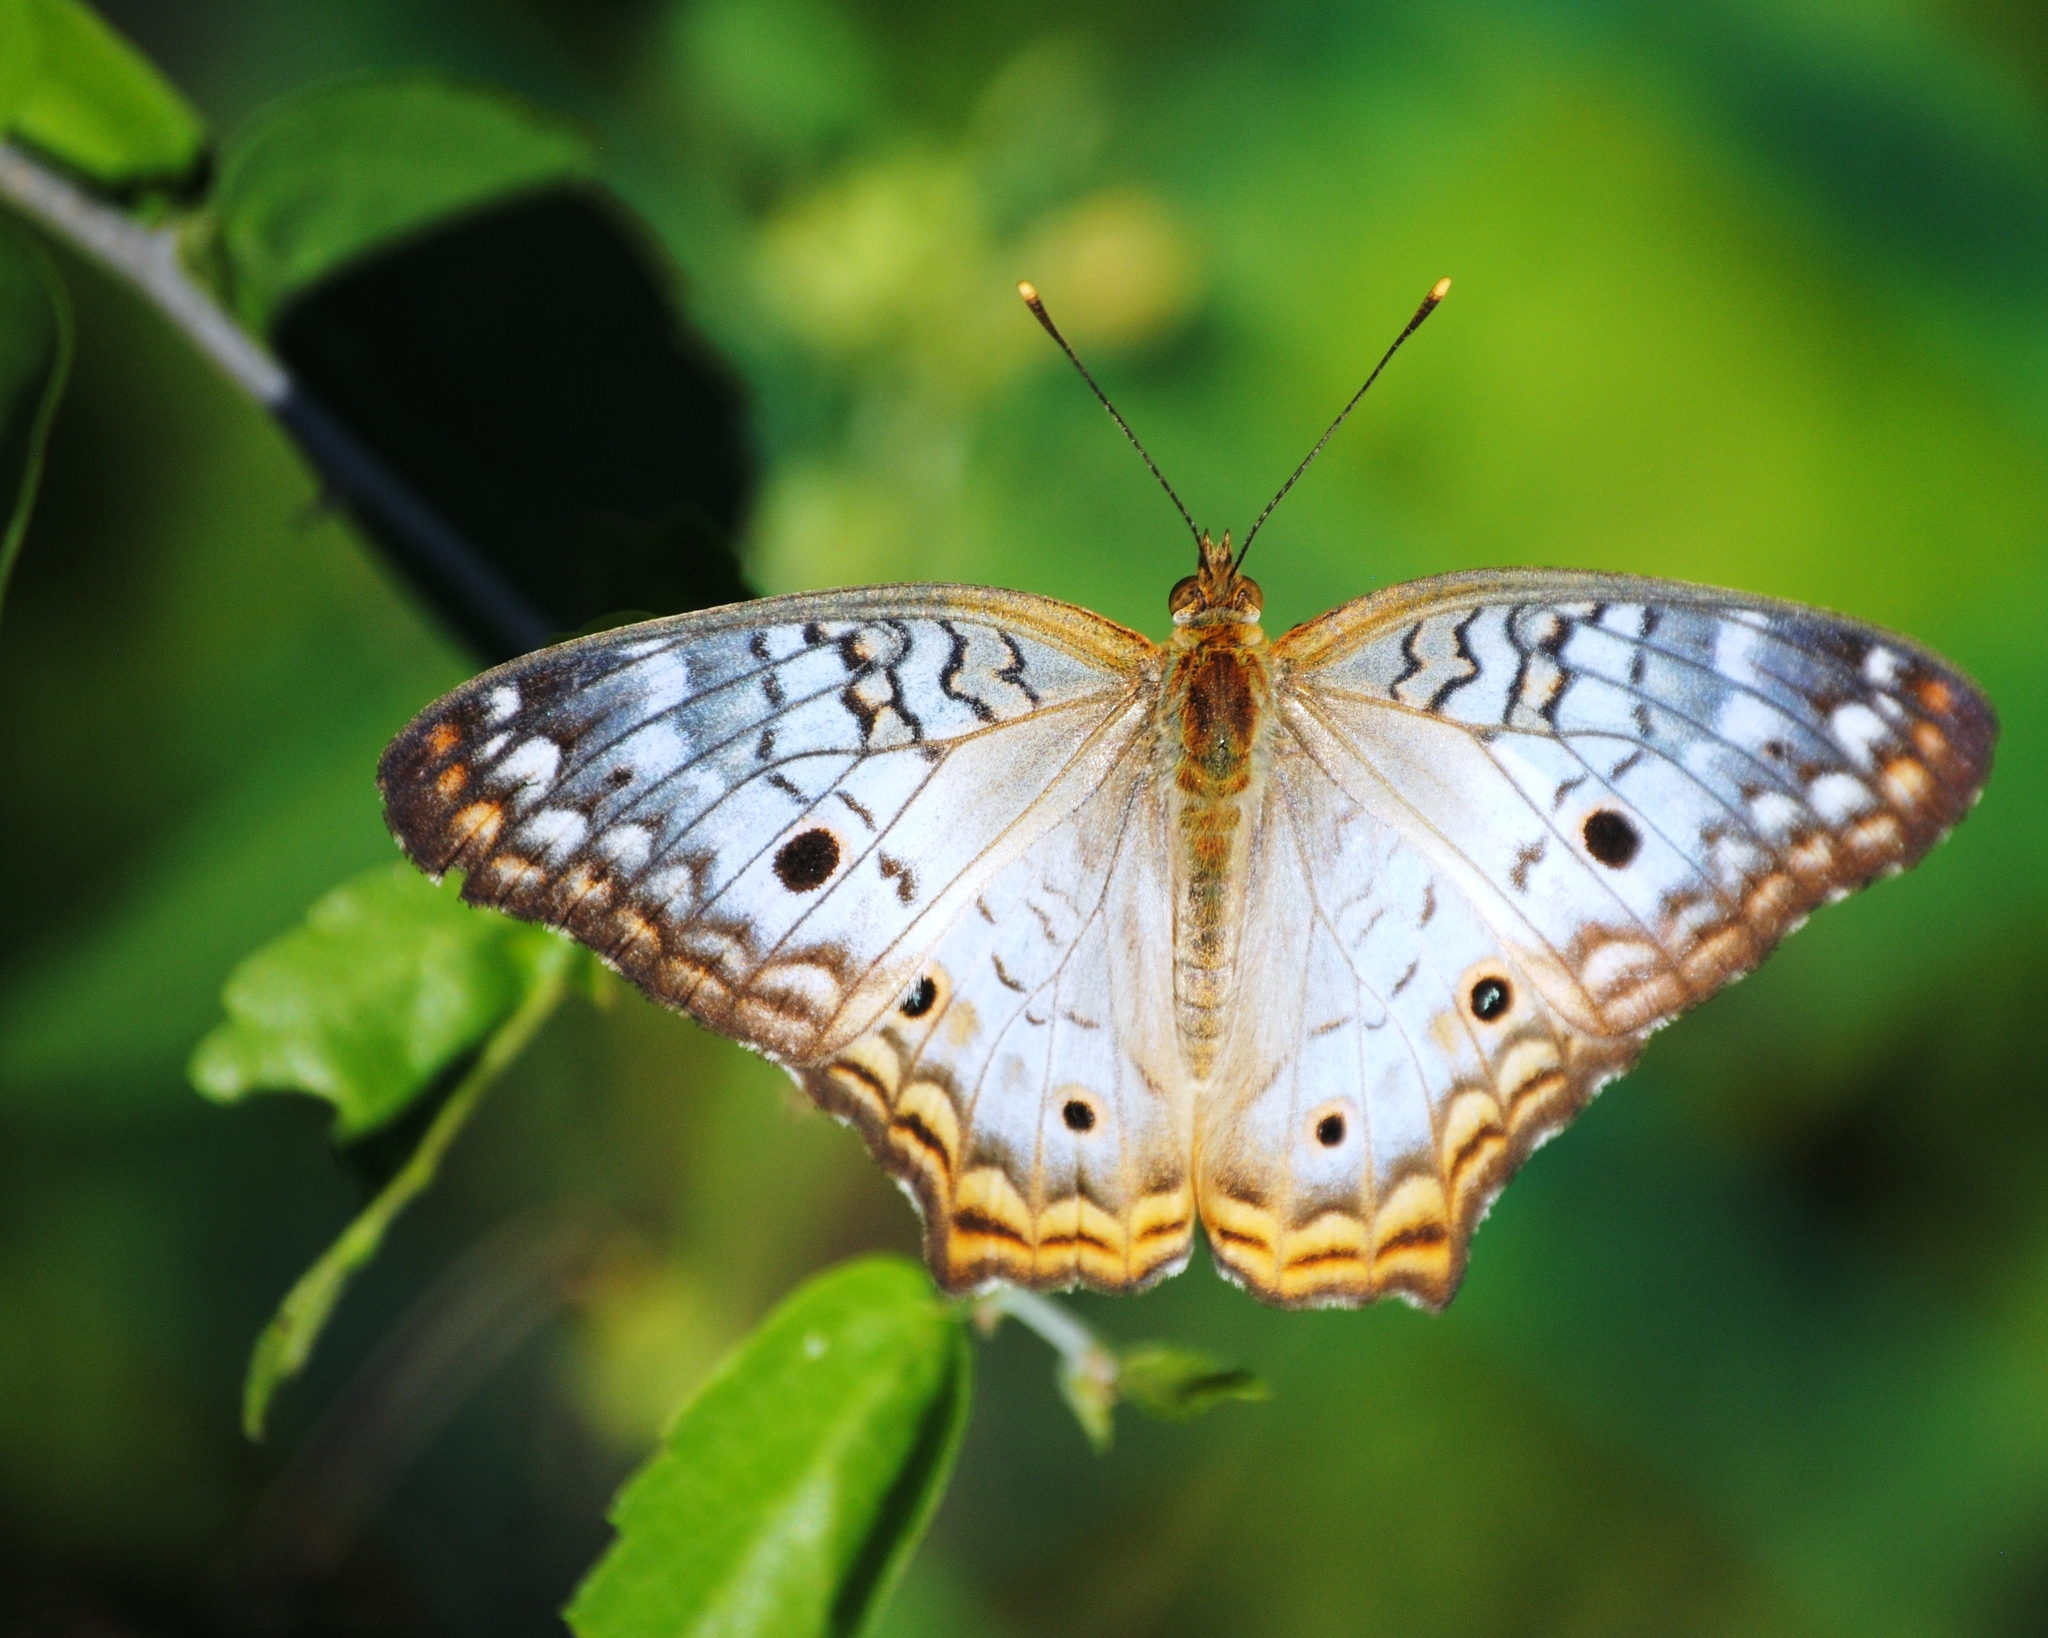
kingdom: Animalia
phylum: Arthropoda
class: Insecta
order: Lepidoptera
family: Nymphalidae
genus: Anartia
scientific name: Anartia jatrophae
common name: White peacock
